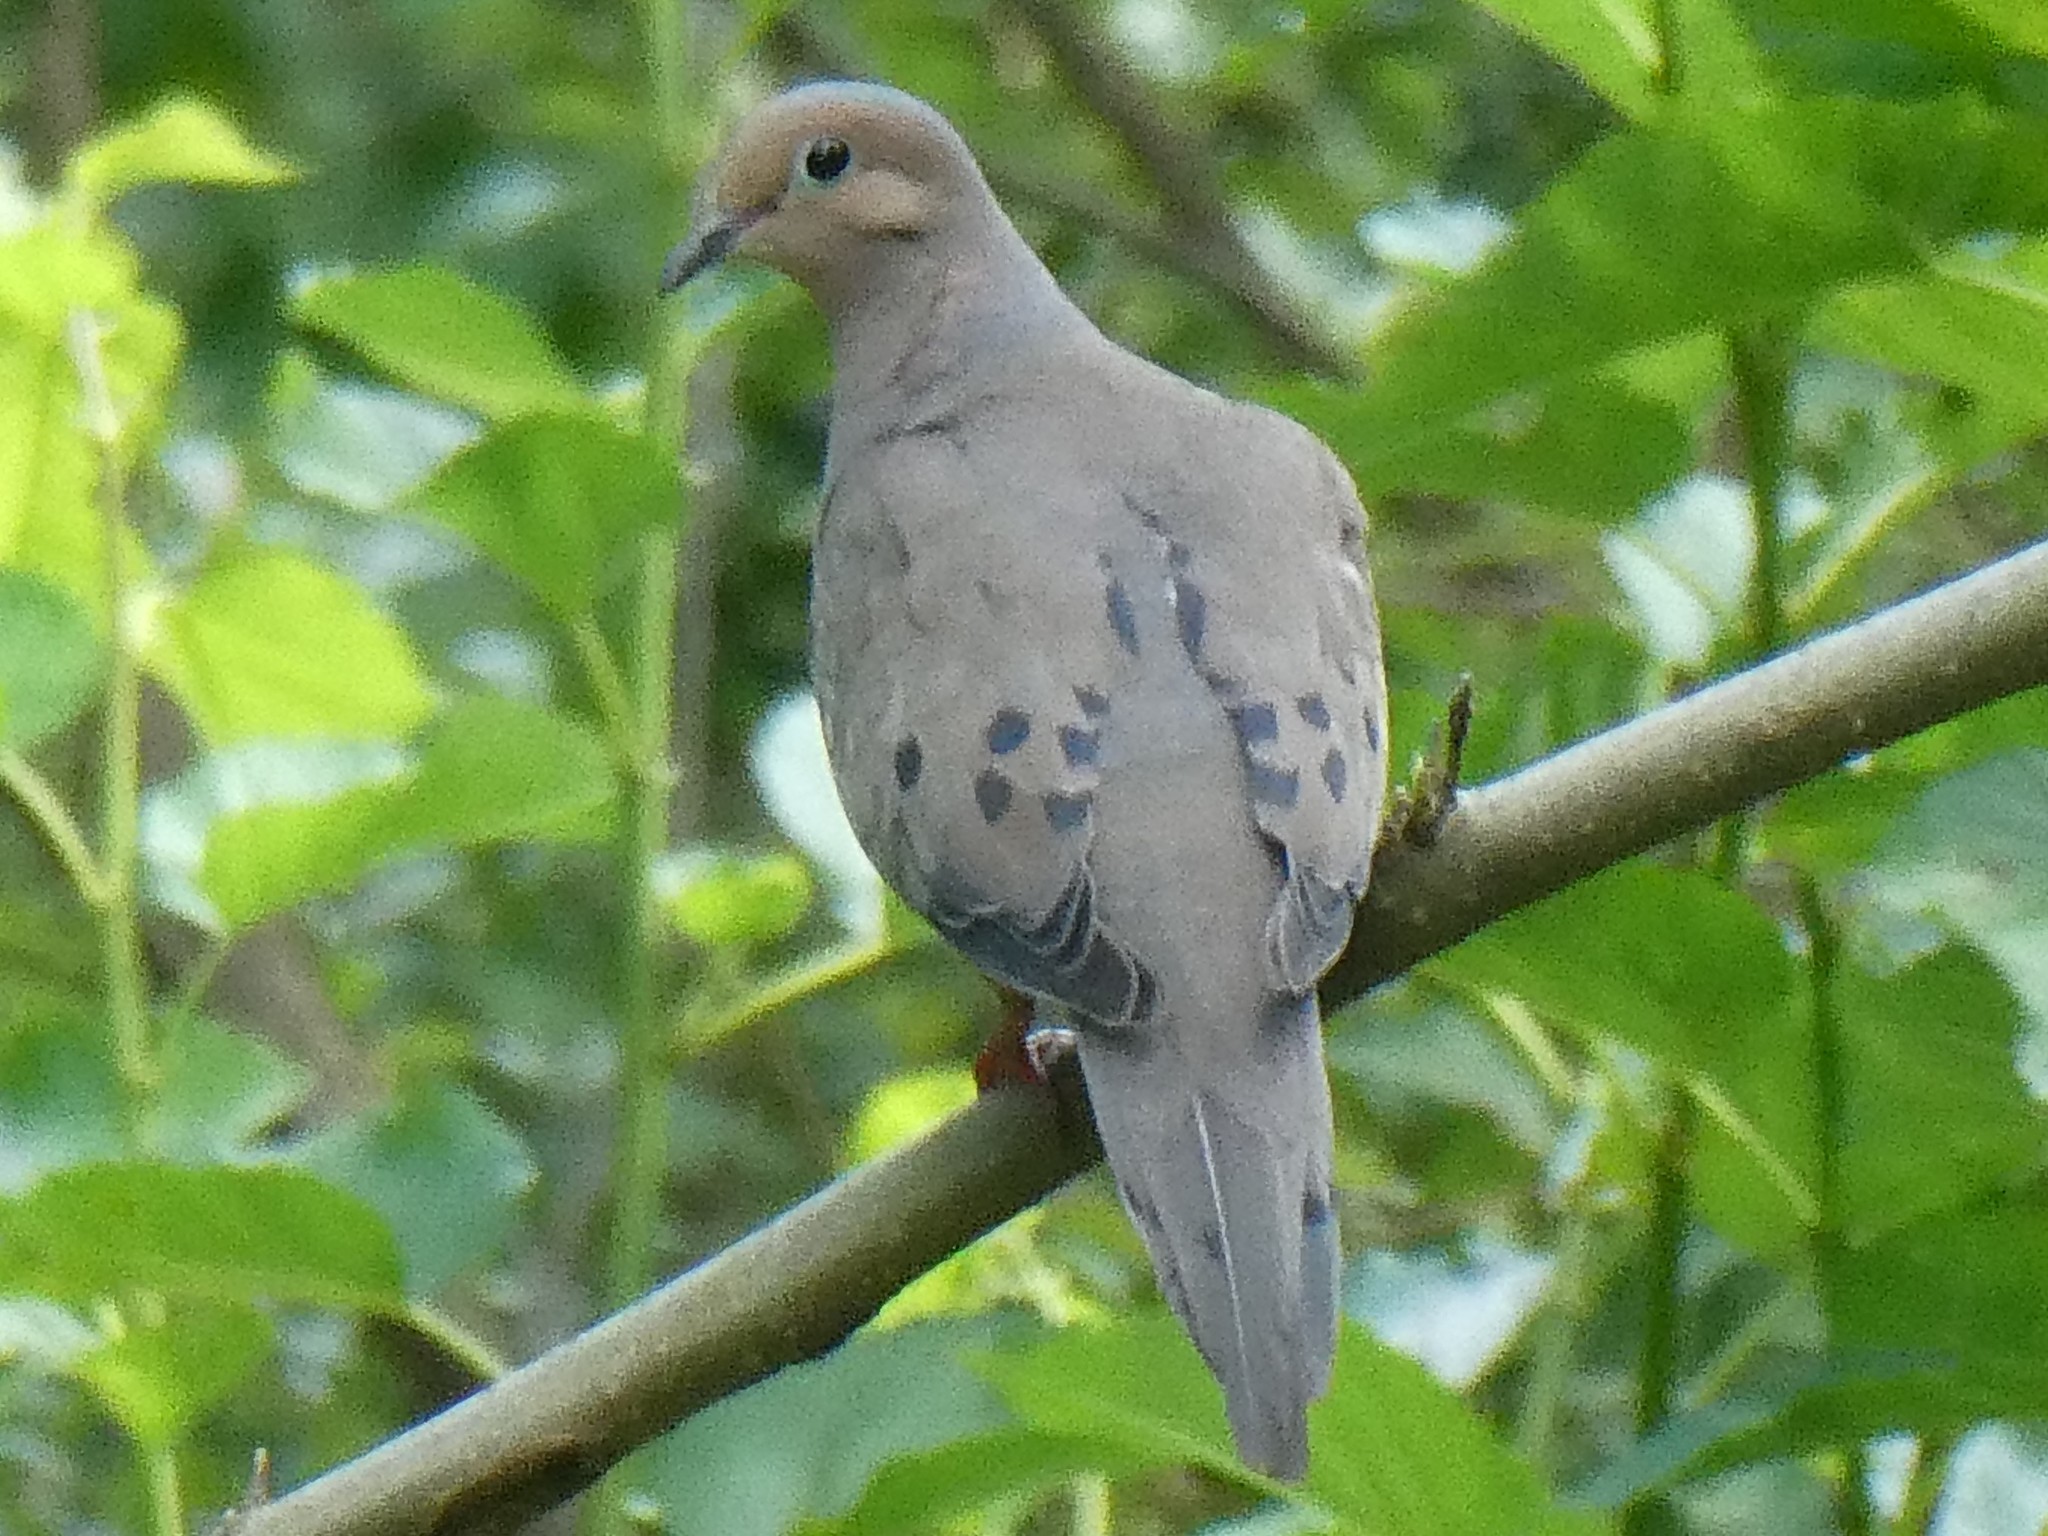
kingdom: Animalia
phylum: Chordata
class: Aves
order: Columbiformes
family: Columbidae
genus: Zenaida
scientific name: Zenaida macroura
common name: Mourning dove
